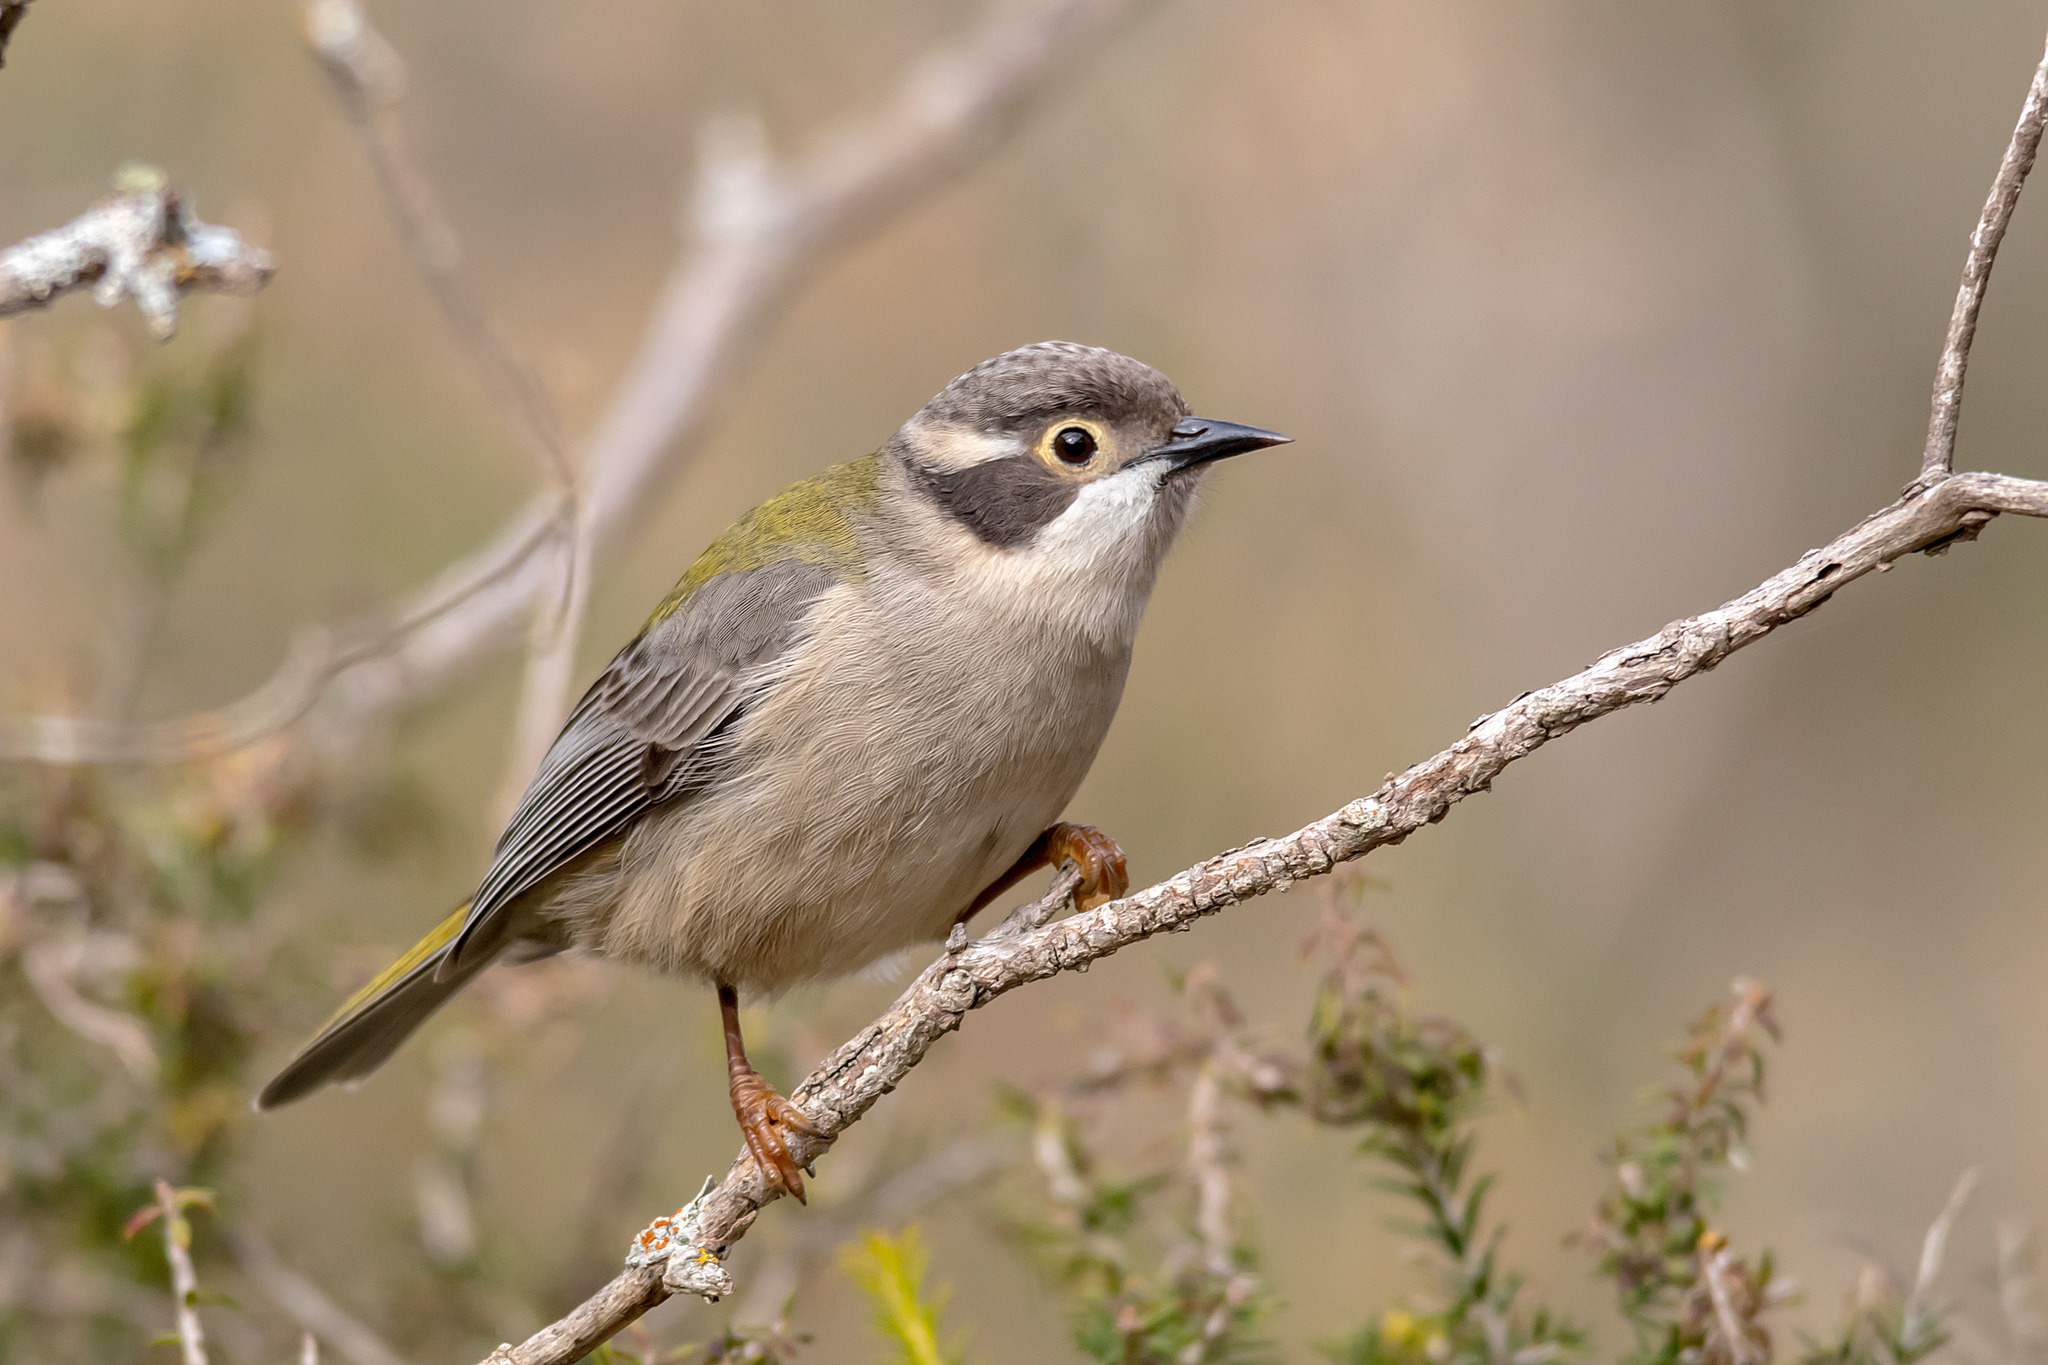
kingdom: Animalia
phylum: Chordata
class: Aves
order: Passeriformes
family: Meliphagidae
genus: Melithreptus
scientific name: Melithreptus brevirostris
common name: Brown-headed honeyeater
